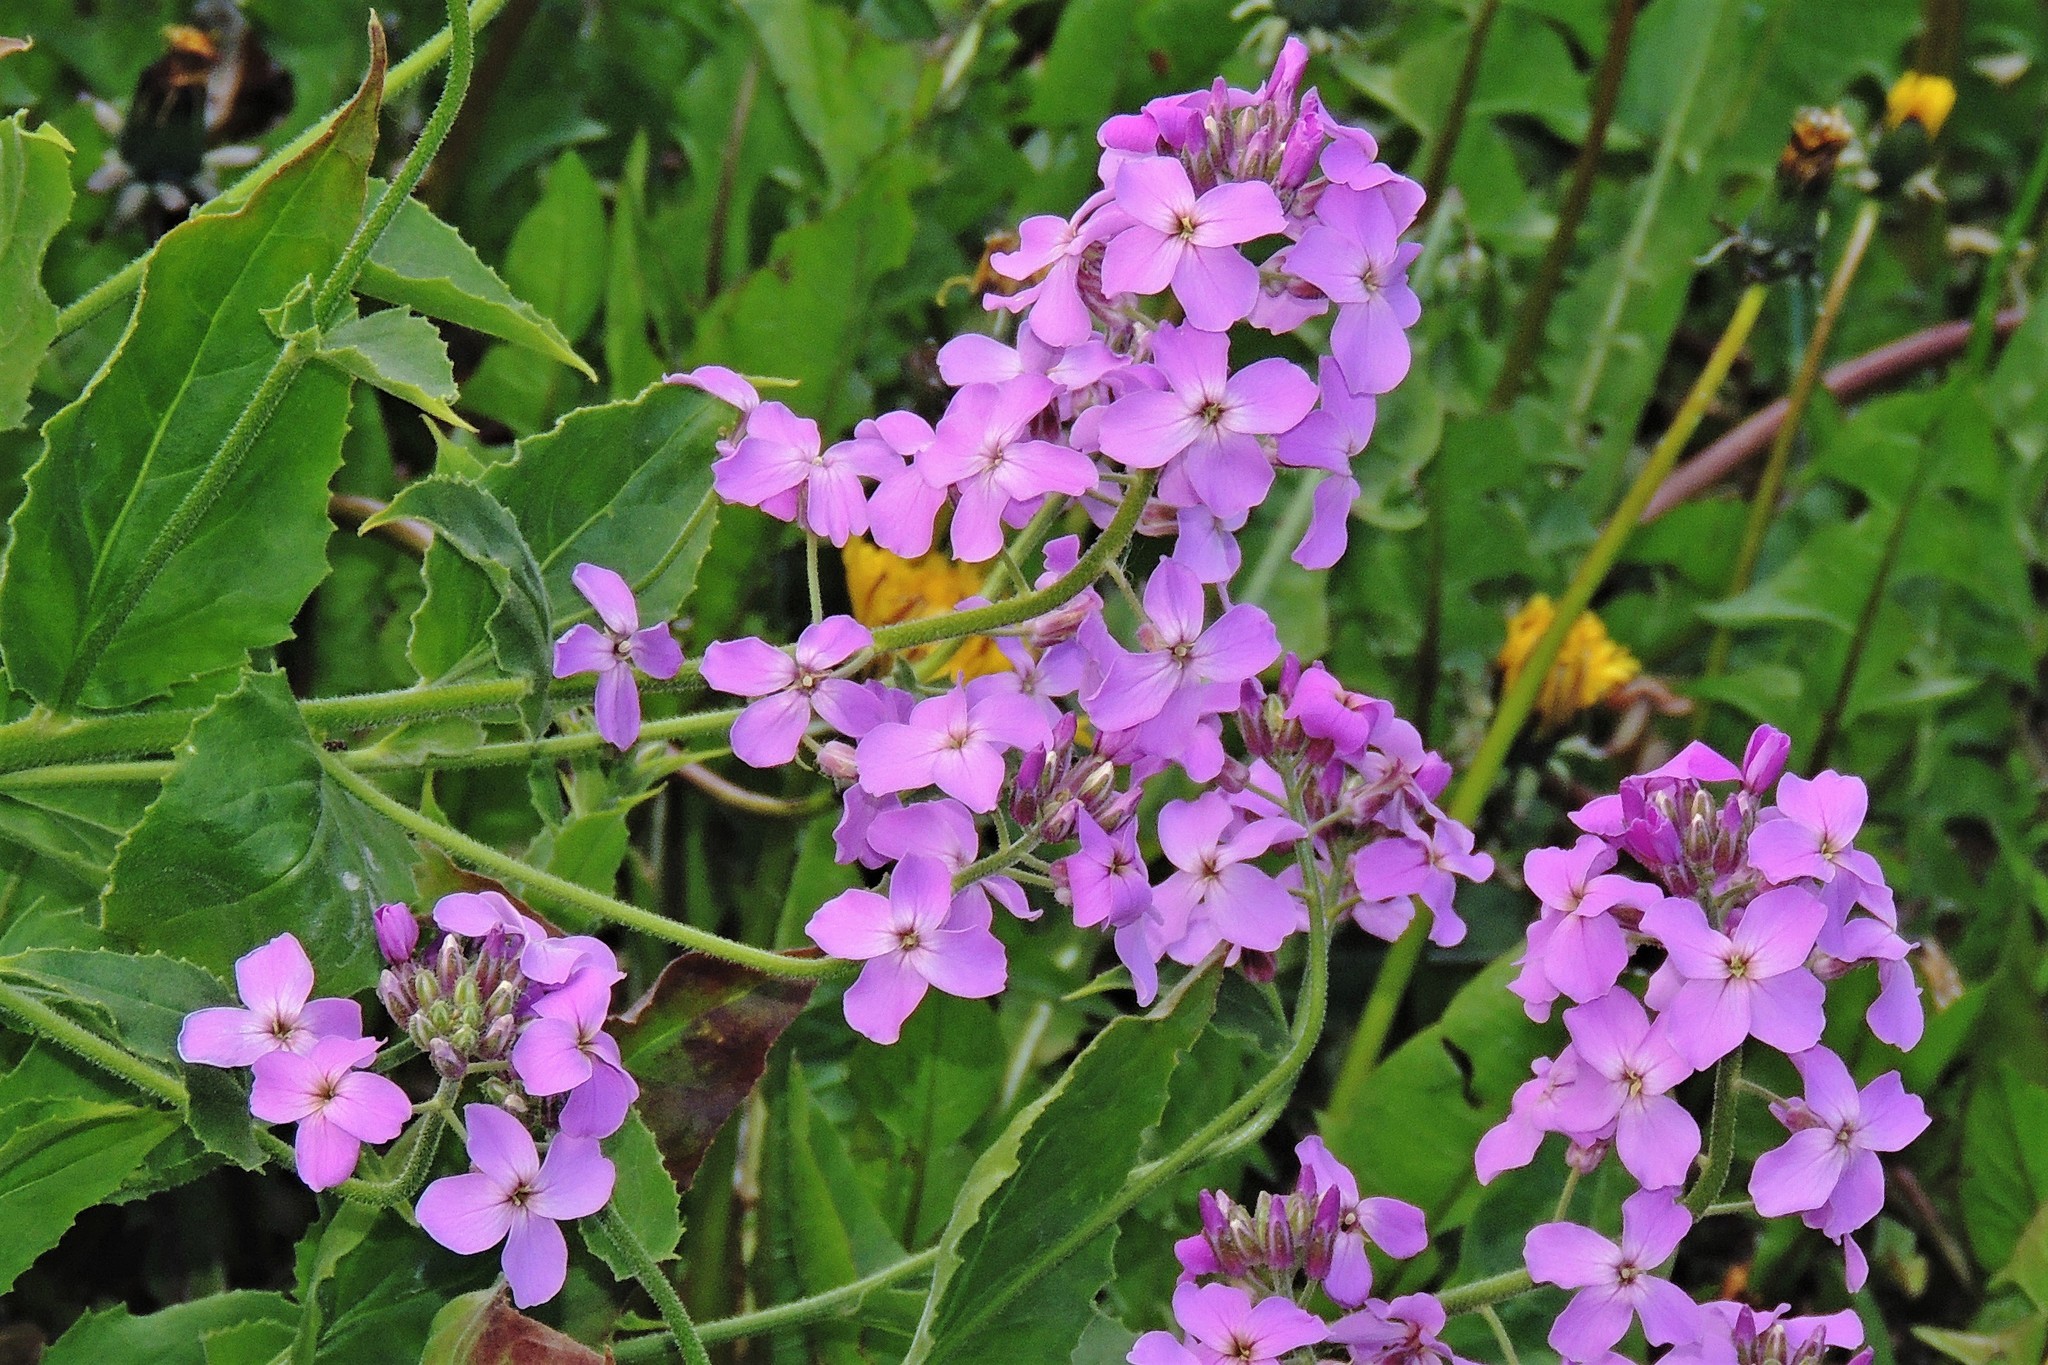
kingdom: Plantae
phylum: Tracheophyta
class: Magnoliopsida
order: Brassicales
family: Brassicaceae
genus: Hesperis
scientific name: Hesperis matronalis
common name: Dame's-violet
